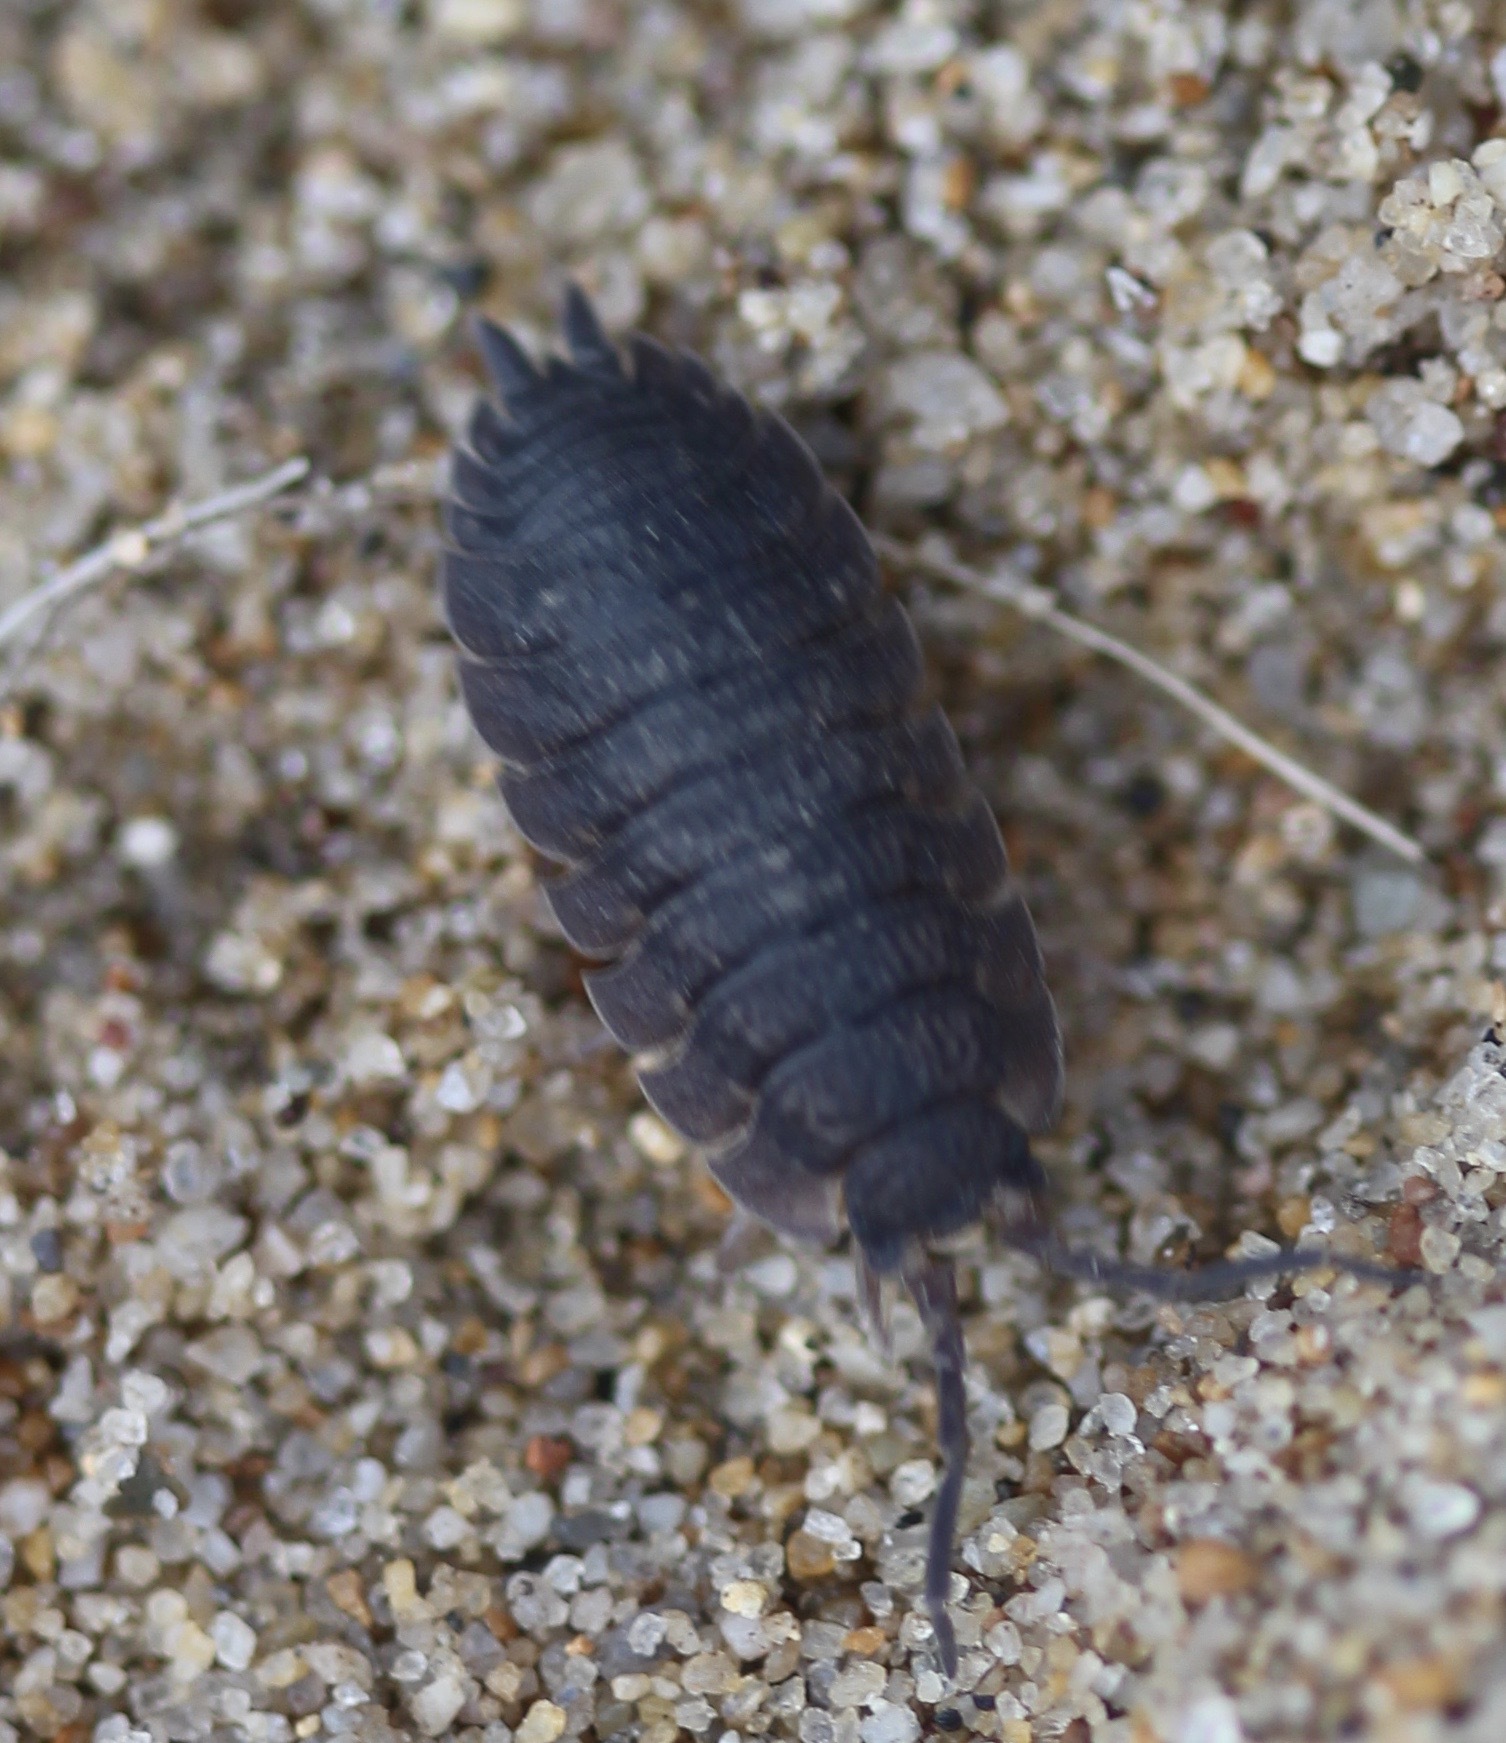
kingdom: Animalia
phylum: Arthropoda
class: Malacostraca
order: Isopoda
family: Porcellionidae
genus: Porcellio
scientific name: Porcellio scaber
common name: Common rough woodlouse
